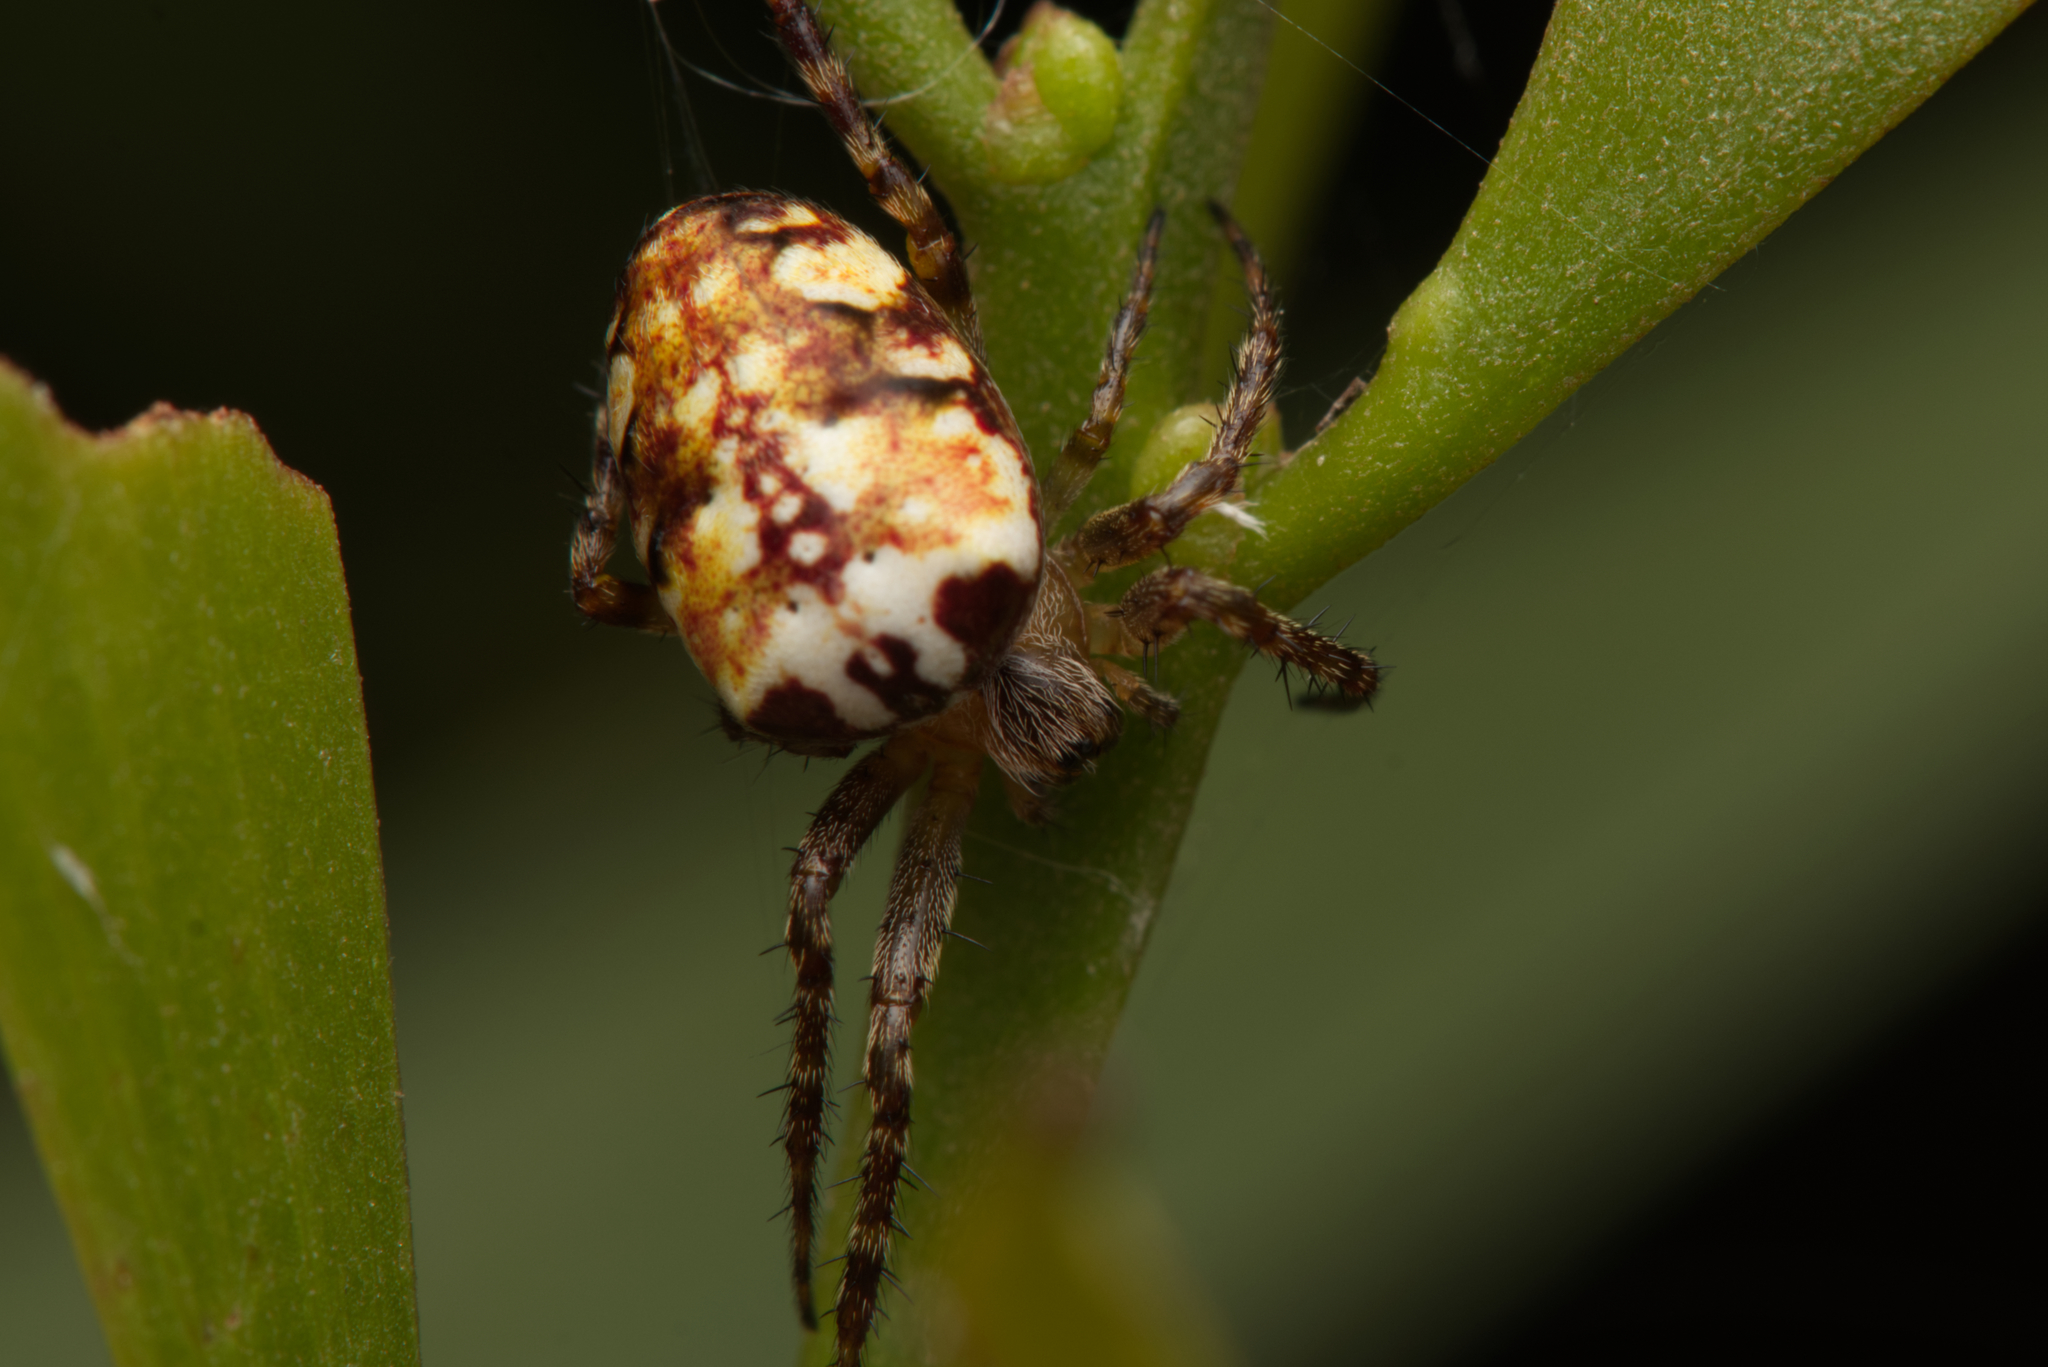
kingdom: Animalia
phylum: Arthropoda
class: Arachnida
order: Araneae
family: Araneidae
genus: Plebs
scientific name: Plebs eburnus
